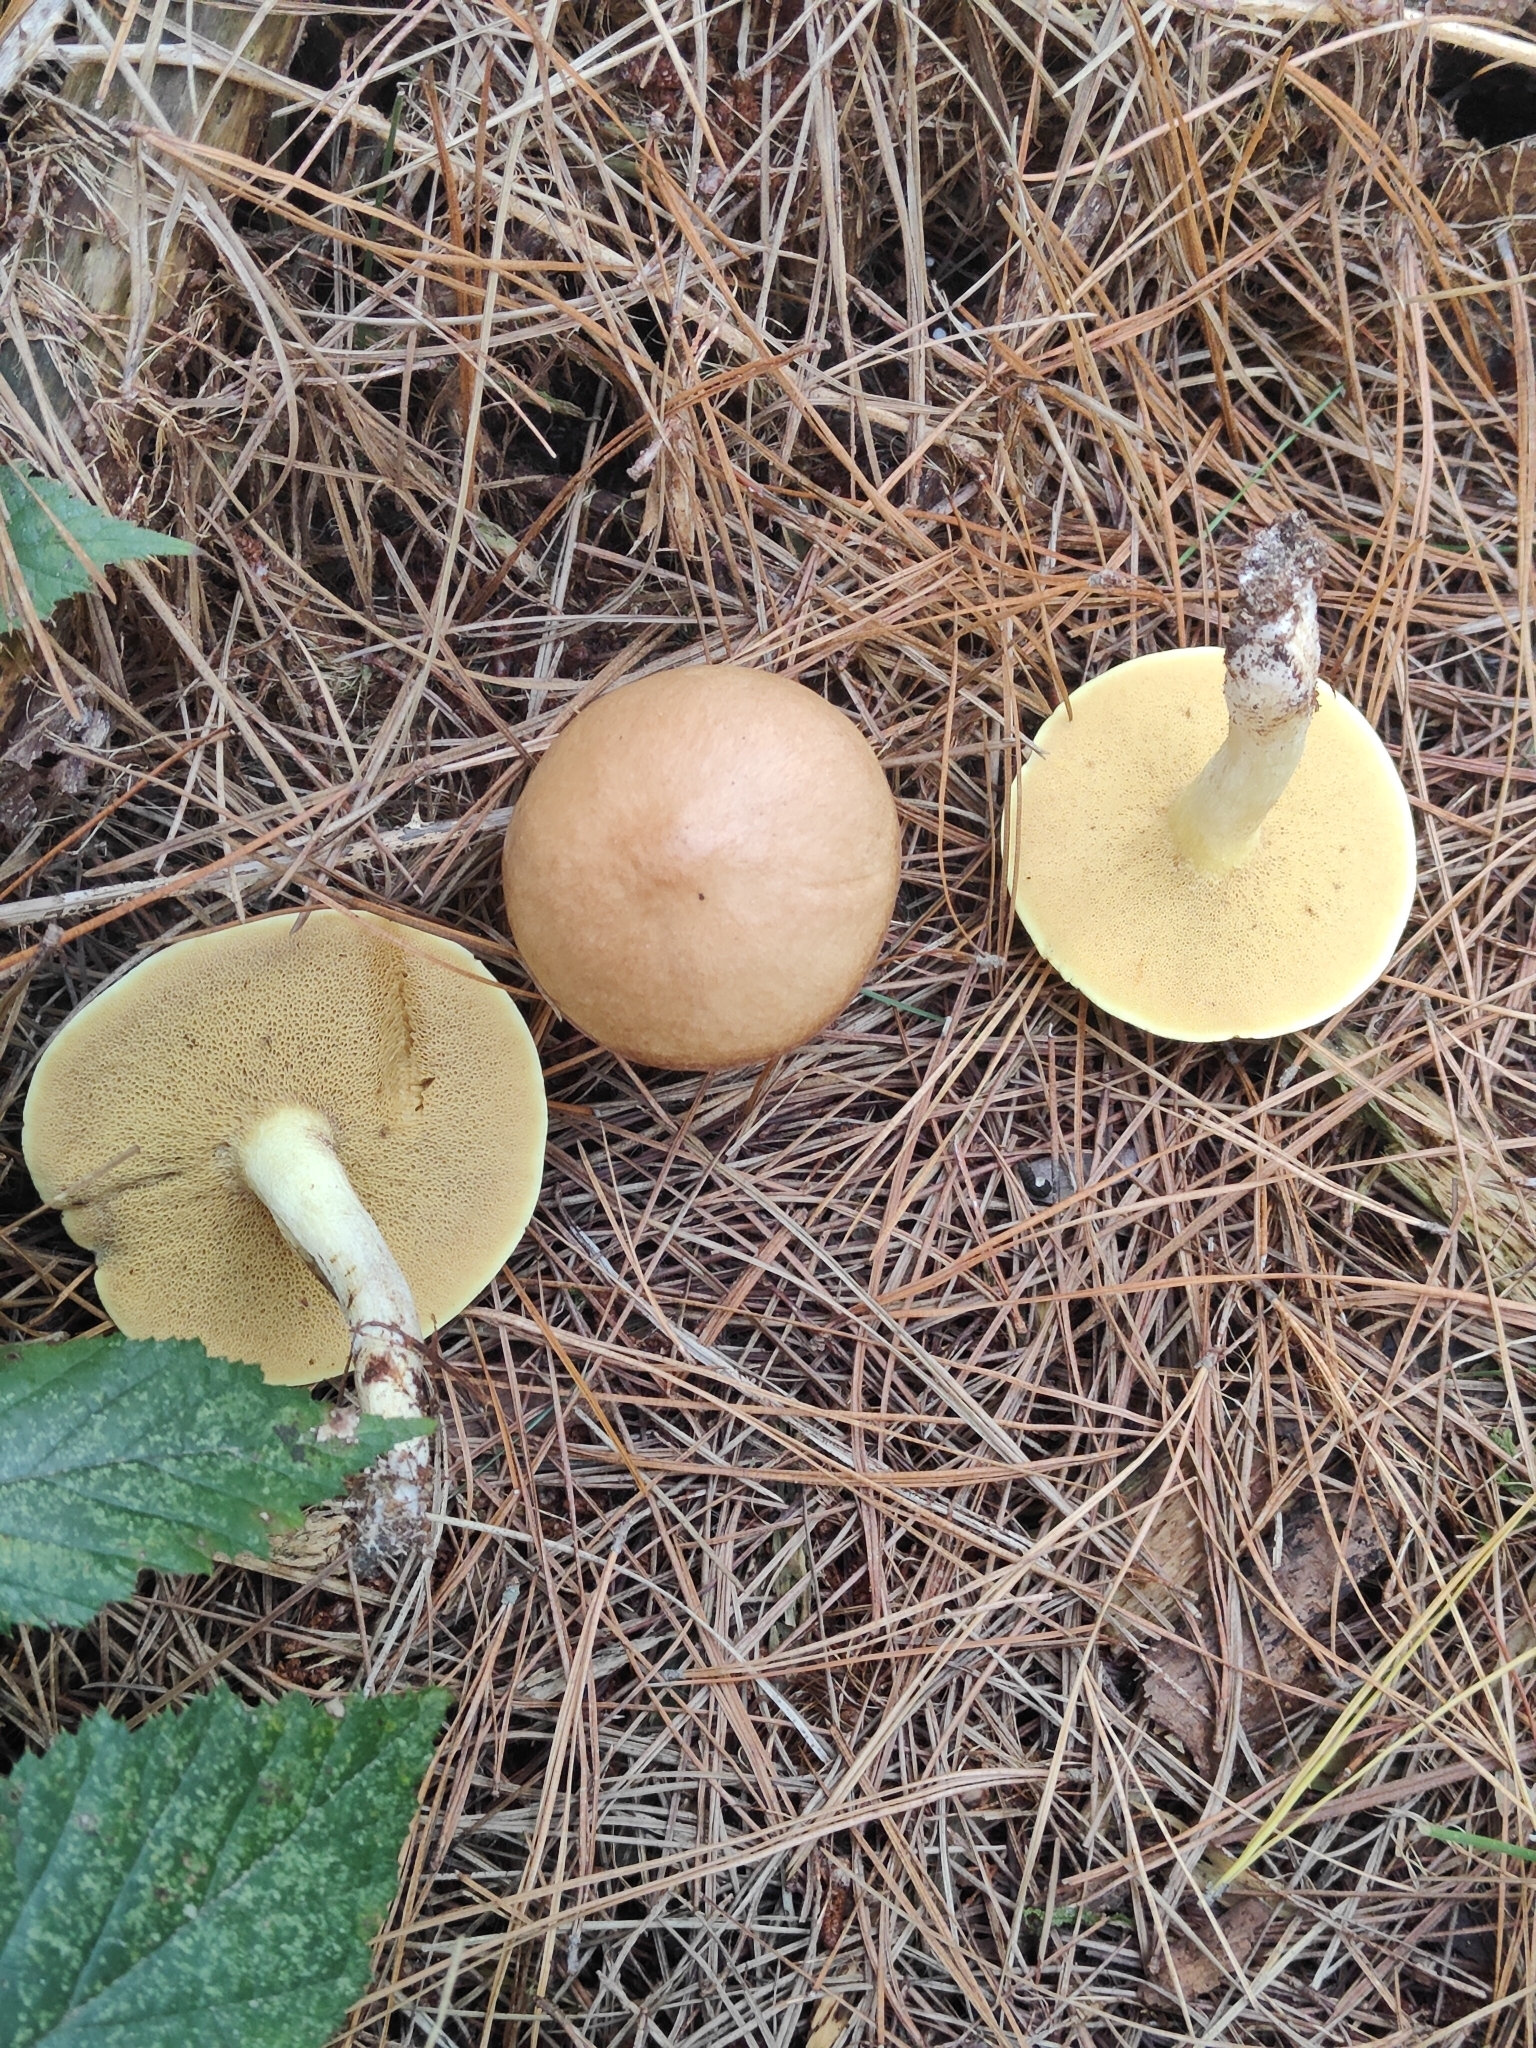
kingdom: Fungi
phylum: Basidiomycota
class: Agaricomycetes
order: Boletales
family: Suillaceae
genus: Suillus
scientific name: Suillus granulatus
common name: Weeping bolete
